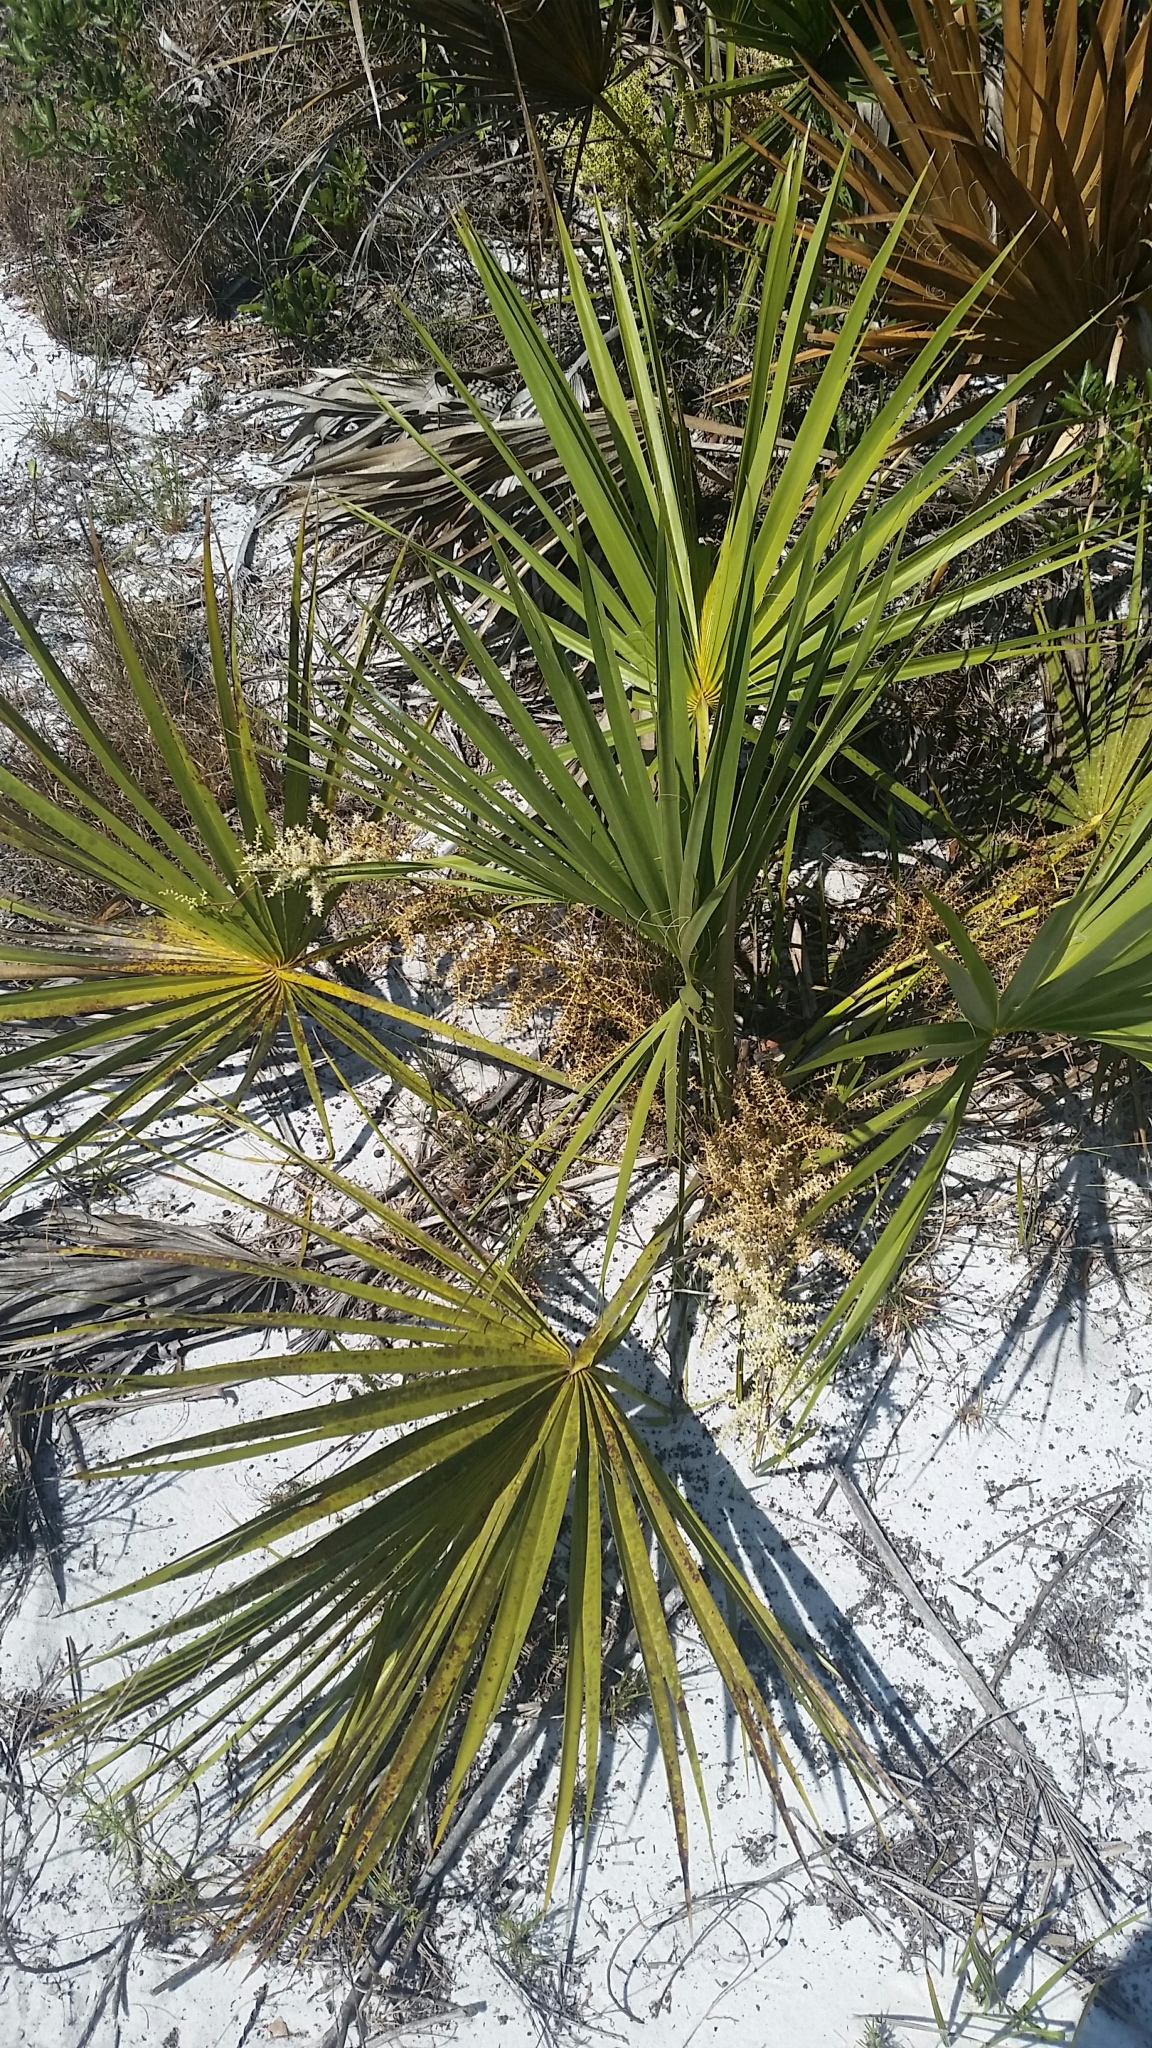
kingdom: Plantae
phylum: Tracheophyta
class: Liliopsida
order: Arecales
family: Arecaceae
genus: Sabal
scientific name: Sabal etonia
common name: Dwarf palmetto
